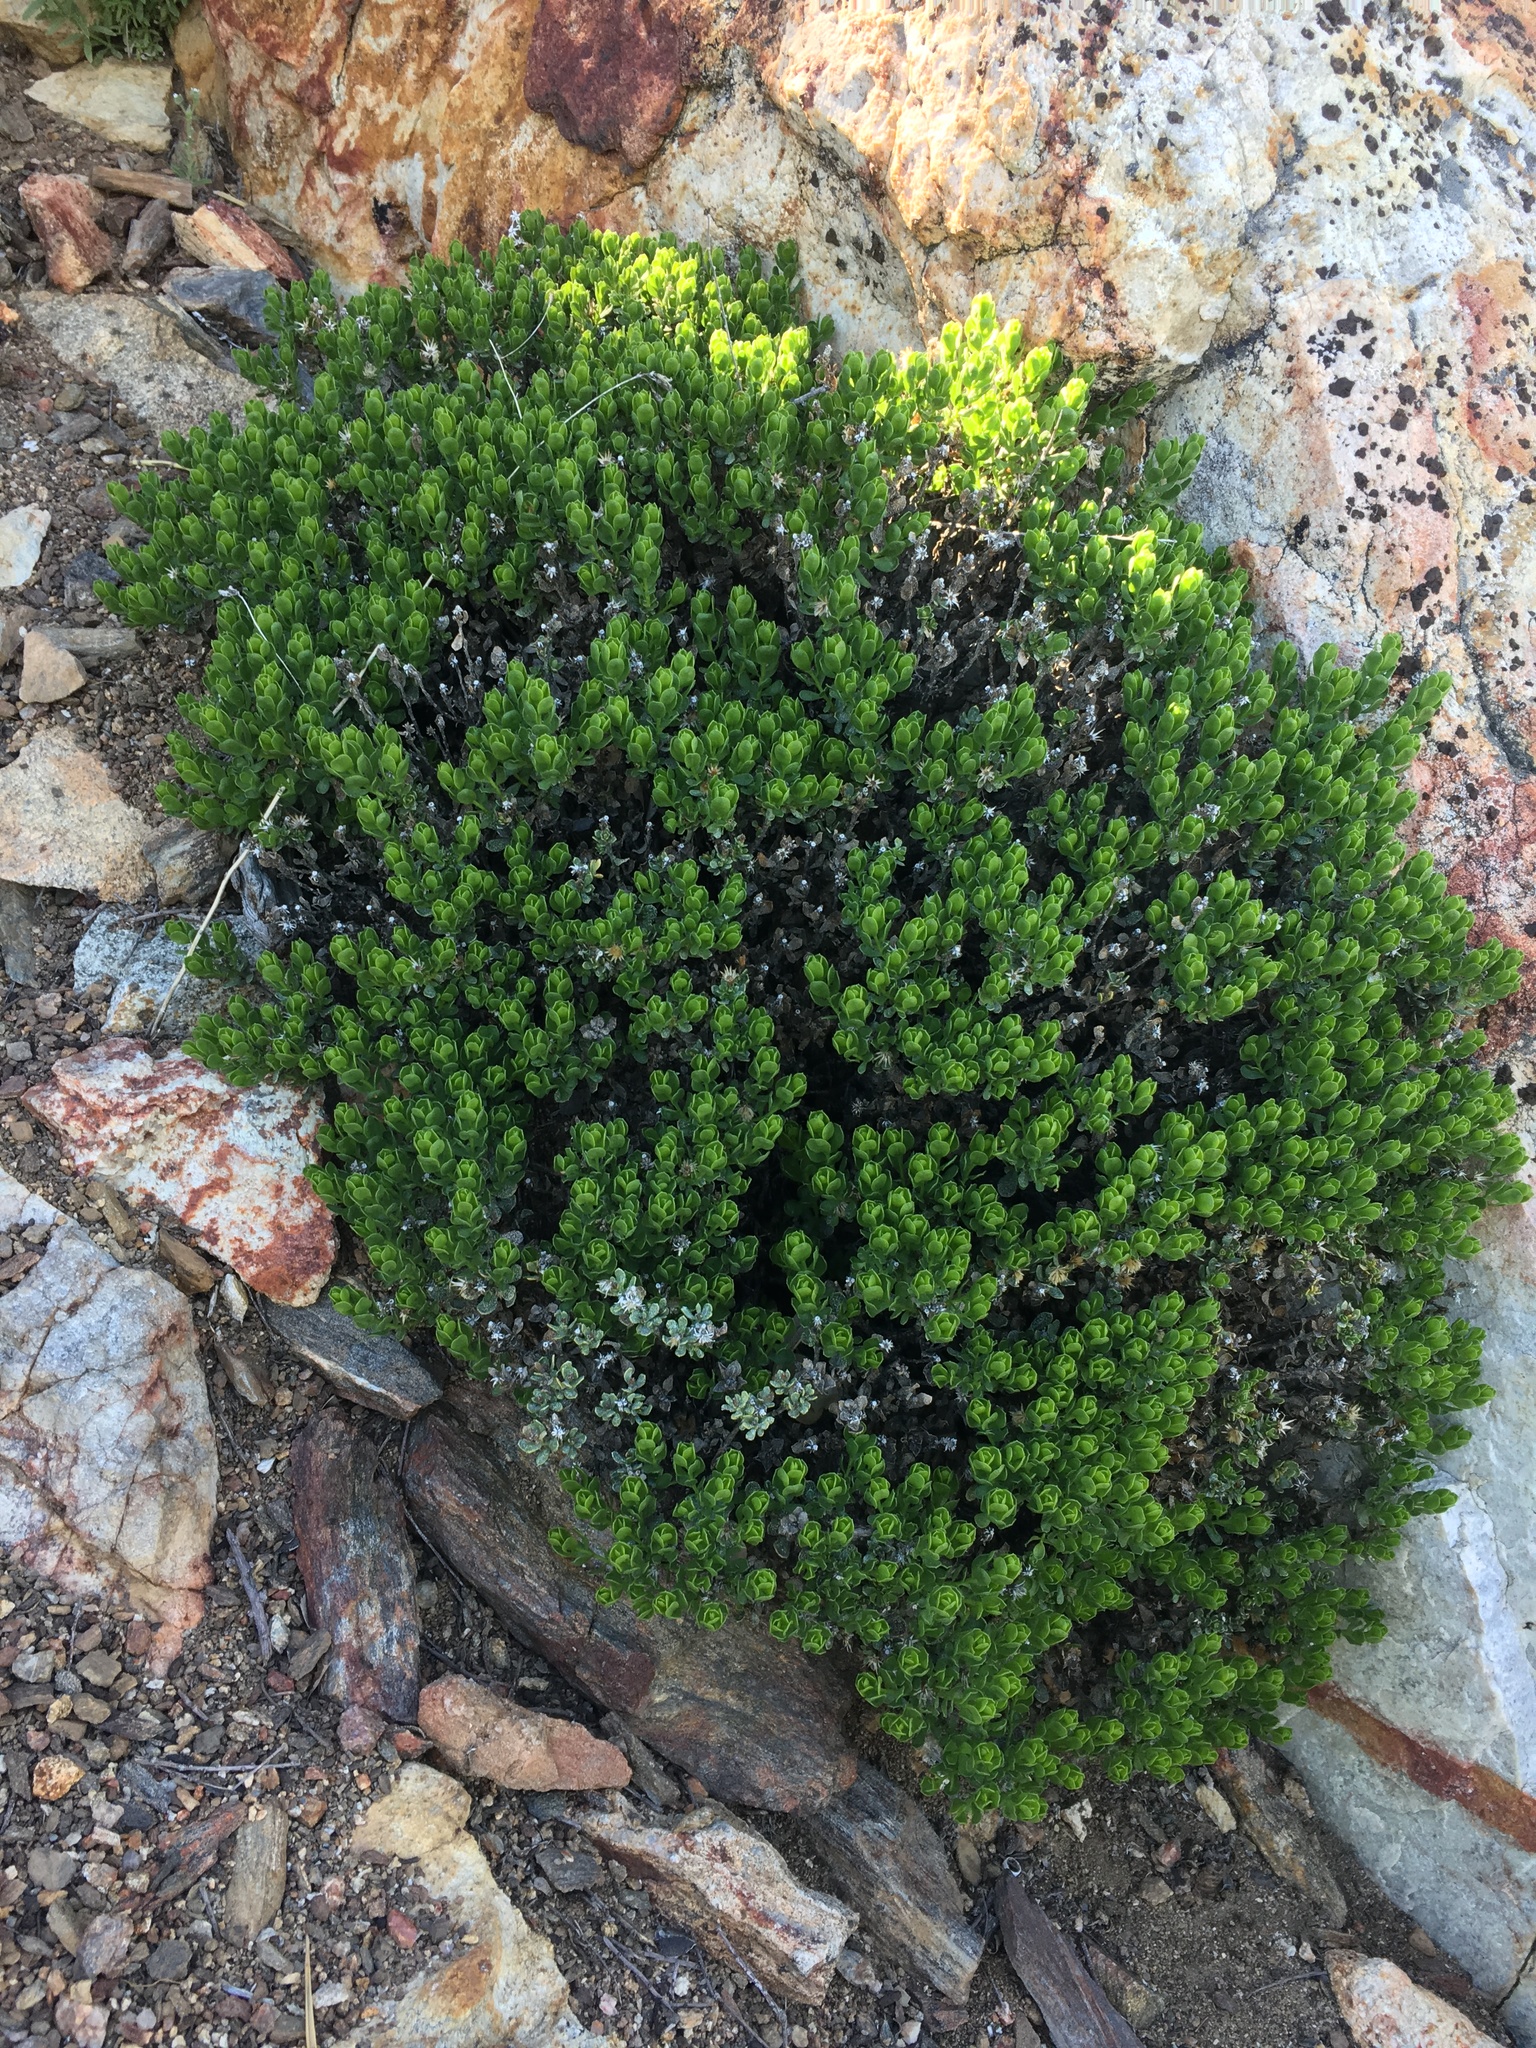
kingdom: Plantae
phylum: Tracheophyta
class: Magnoliopsida
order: Asterales
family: Asteraceae
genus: Ericameria
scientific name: Ericameria cuneata
